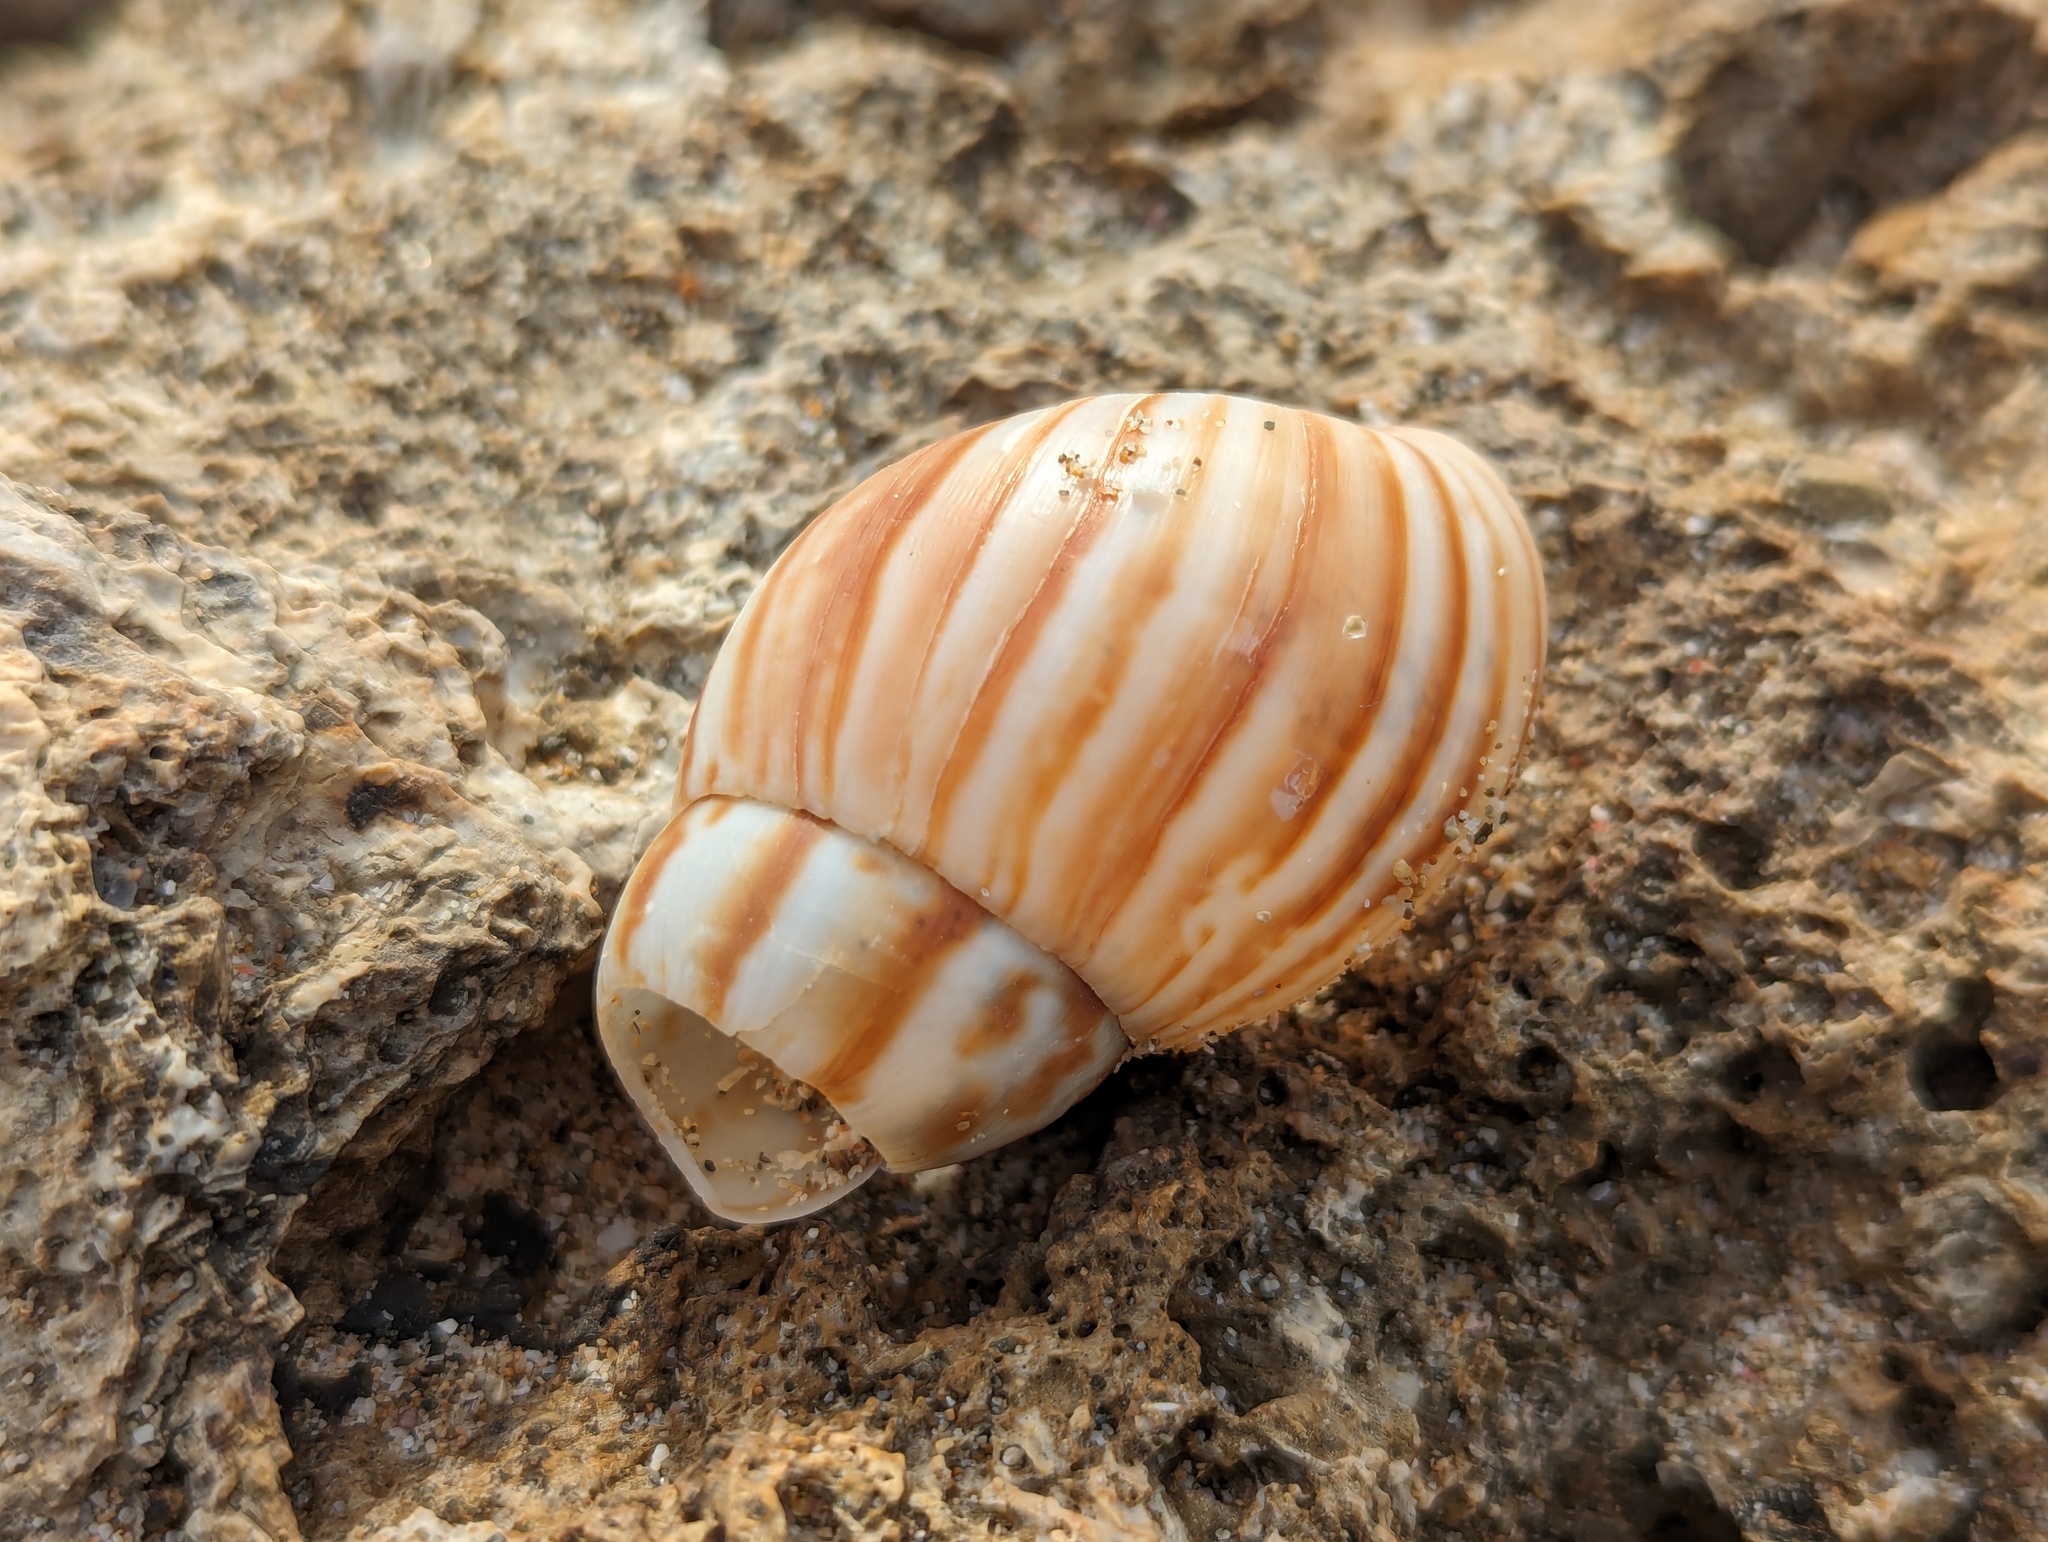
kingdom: Animalia
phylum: Mollusca
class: Gastropoda
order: Stylommatophora
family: Achatinidae
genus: Lissachatina
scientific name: Lissachatina fulica
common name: Giant african snail
